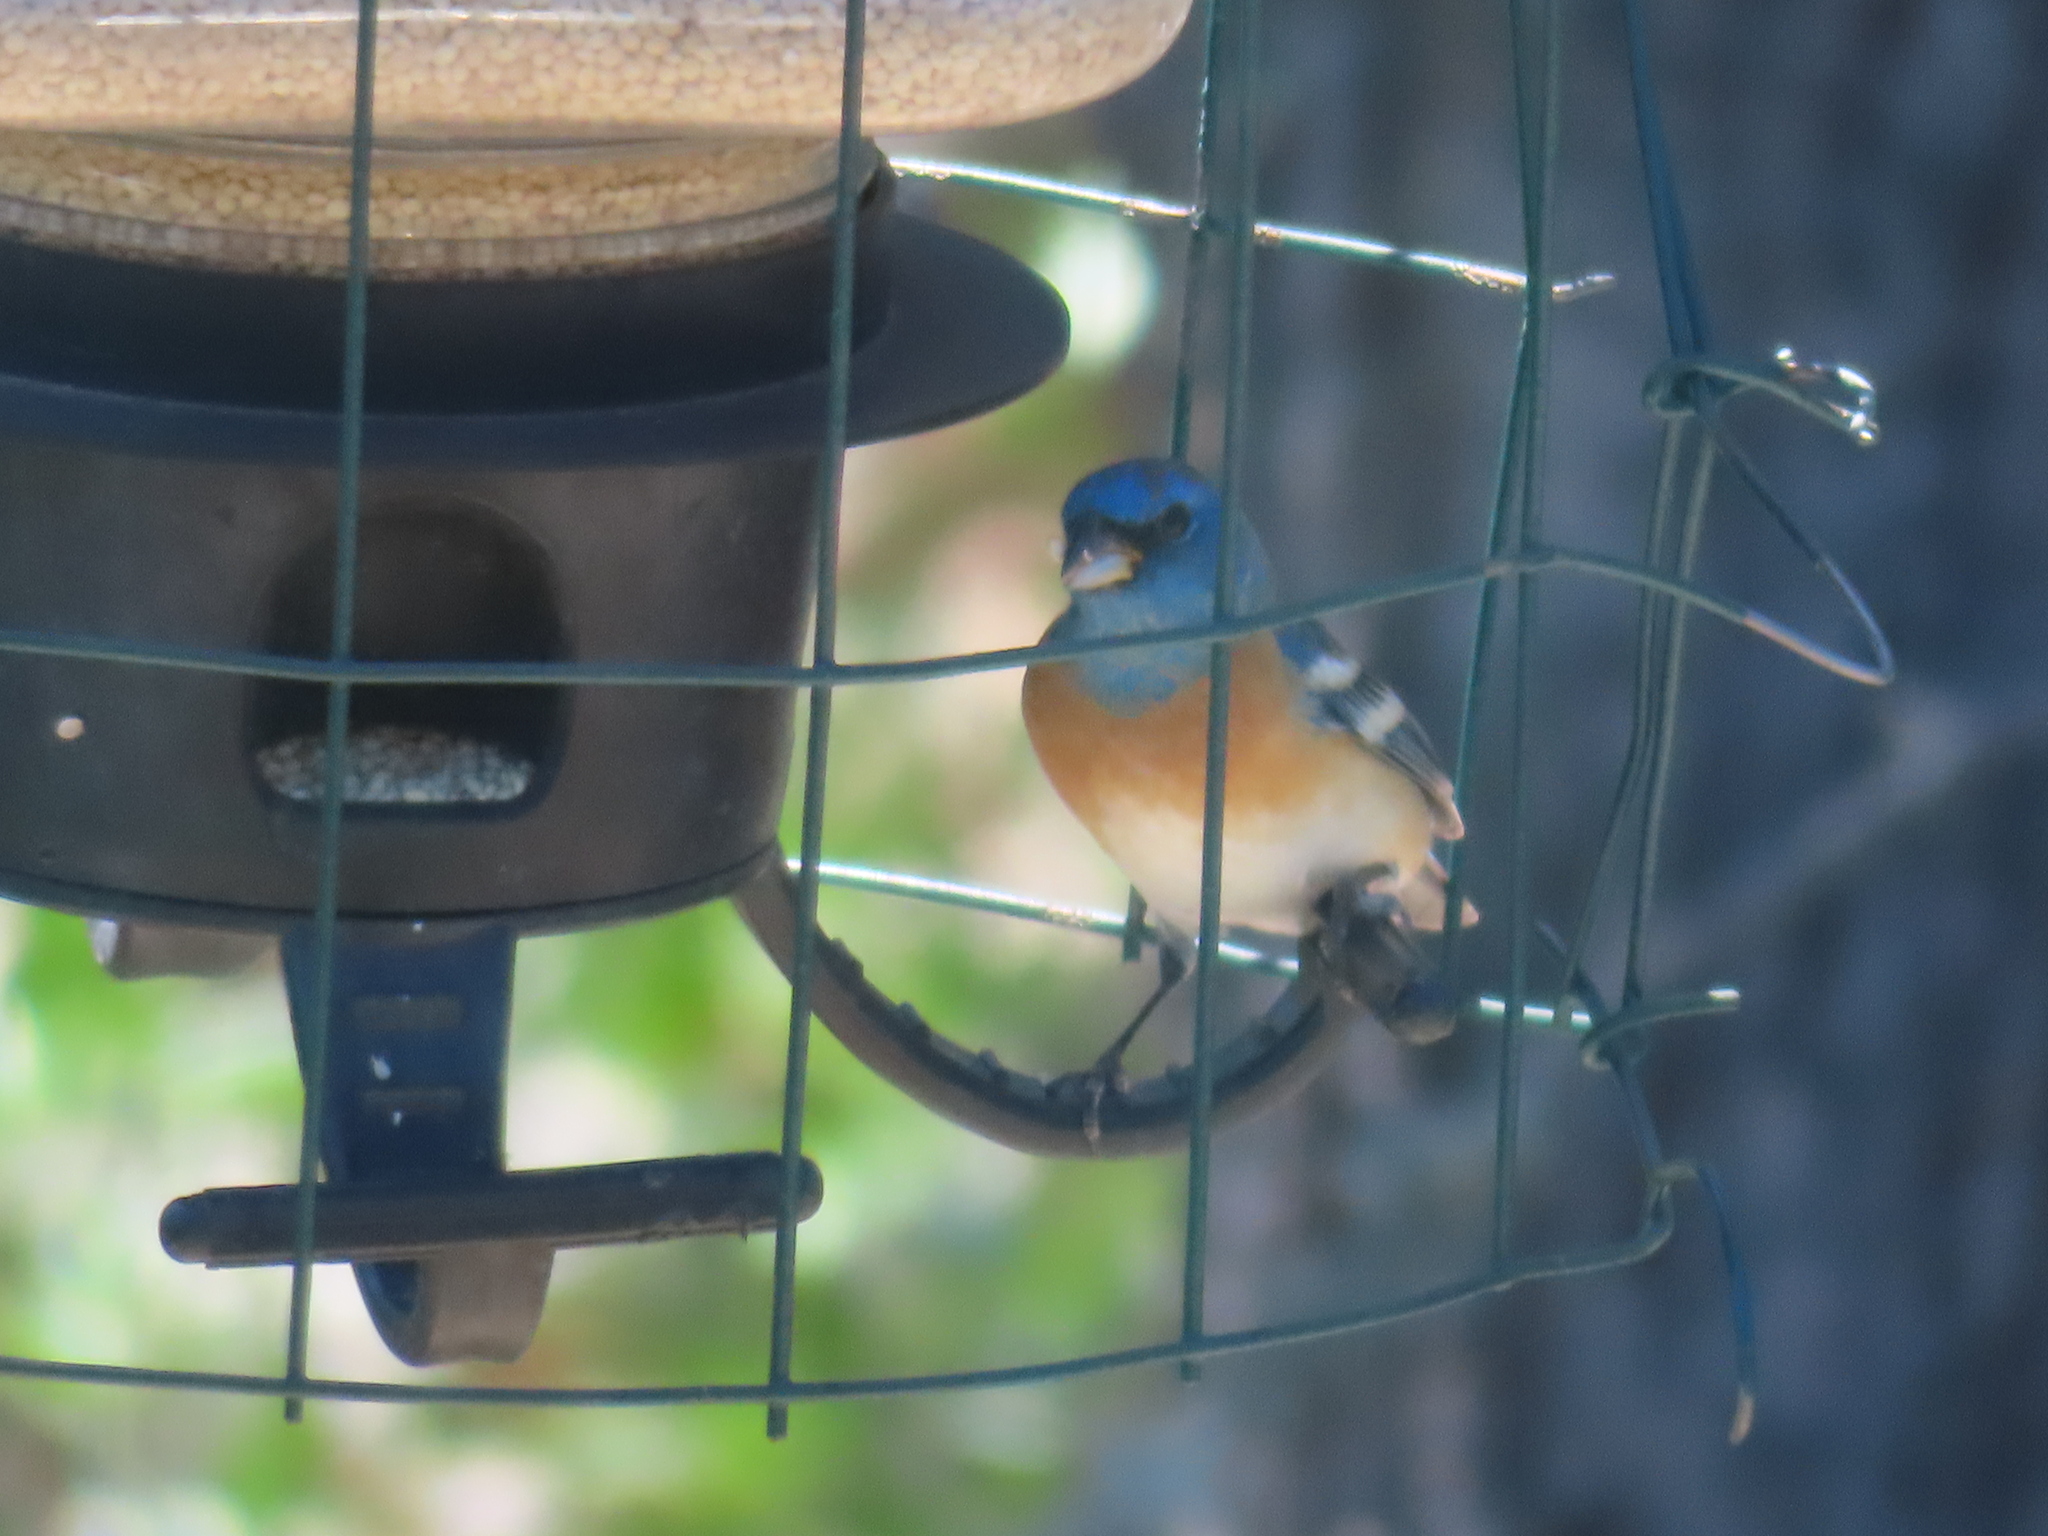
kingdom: Animalia
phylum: Chordata
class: Aves
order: Passeriformes
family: Cardinalidae
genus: Passerina
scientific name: Passerina amoena
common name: Lazuli bunting
